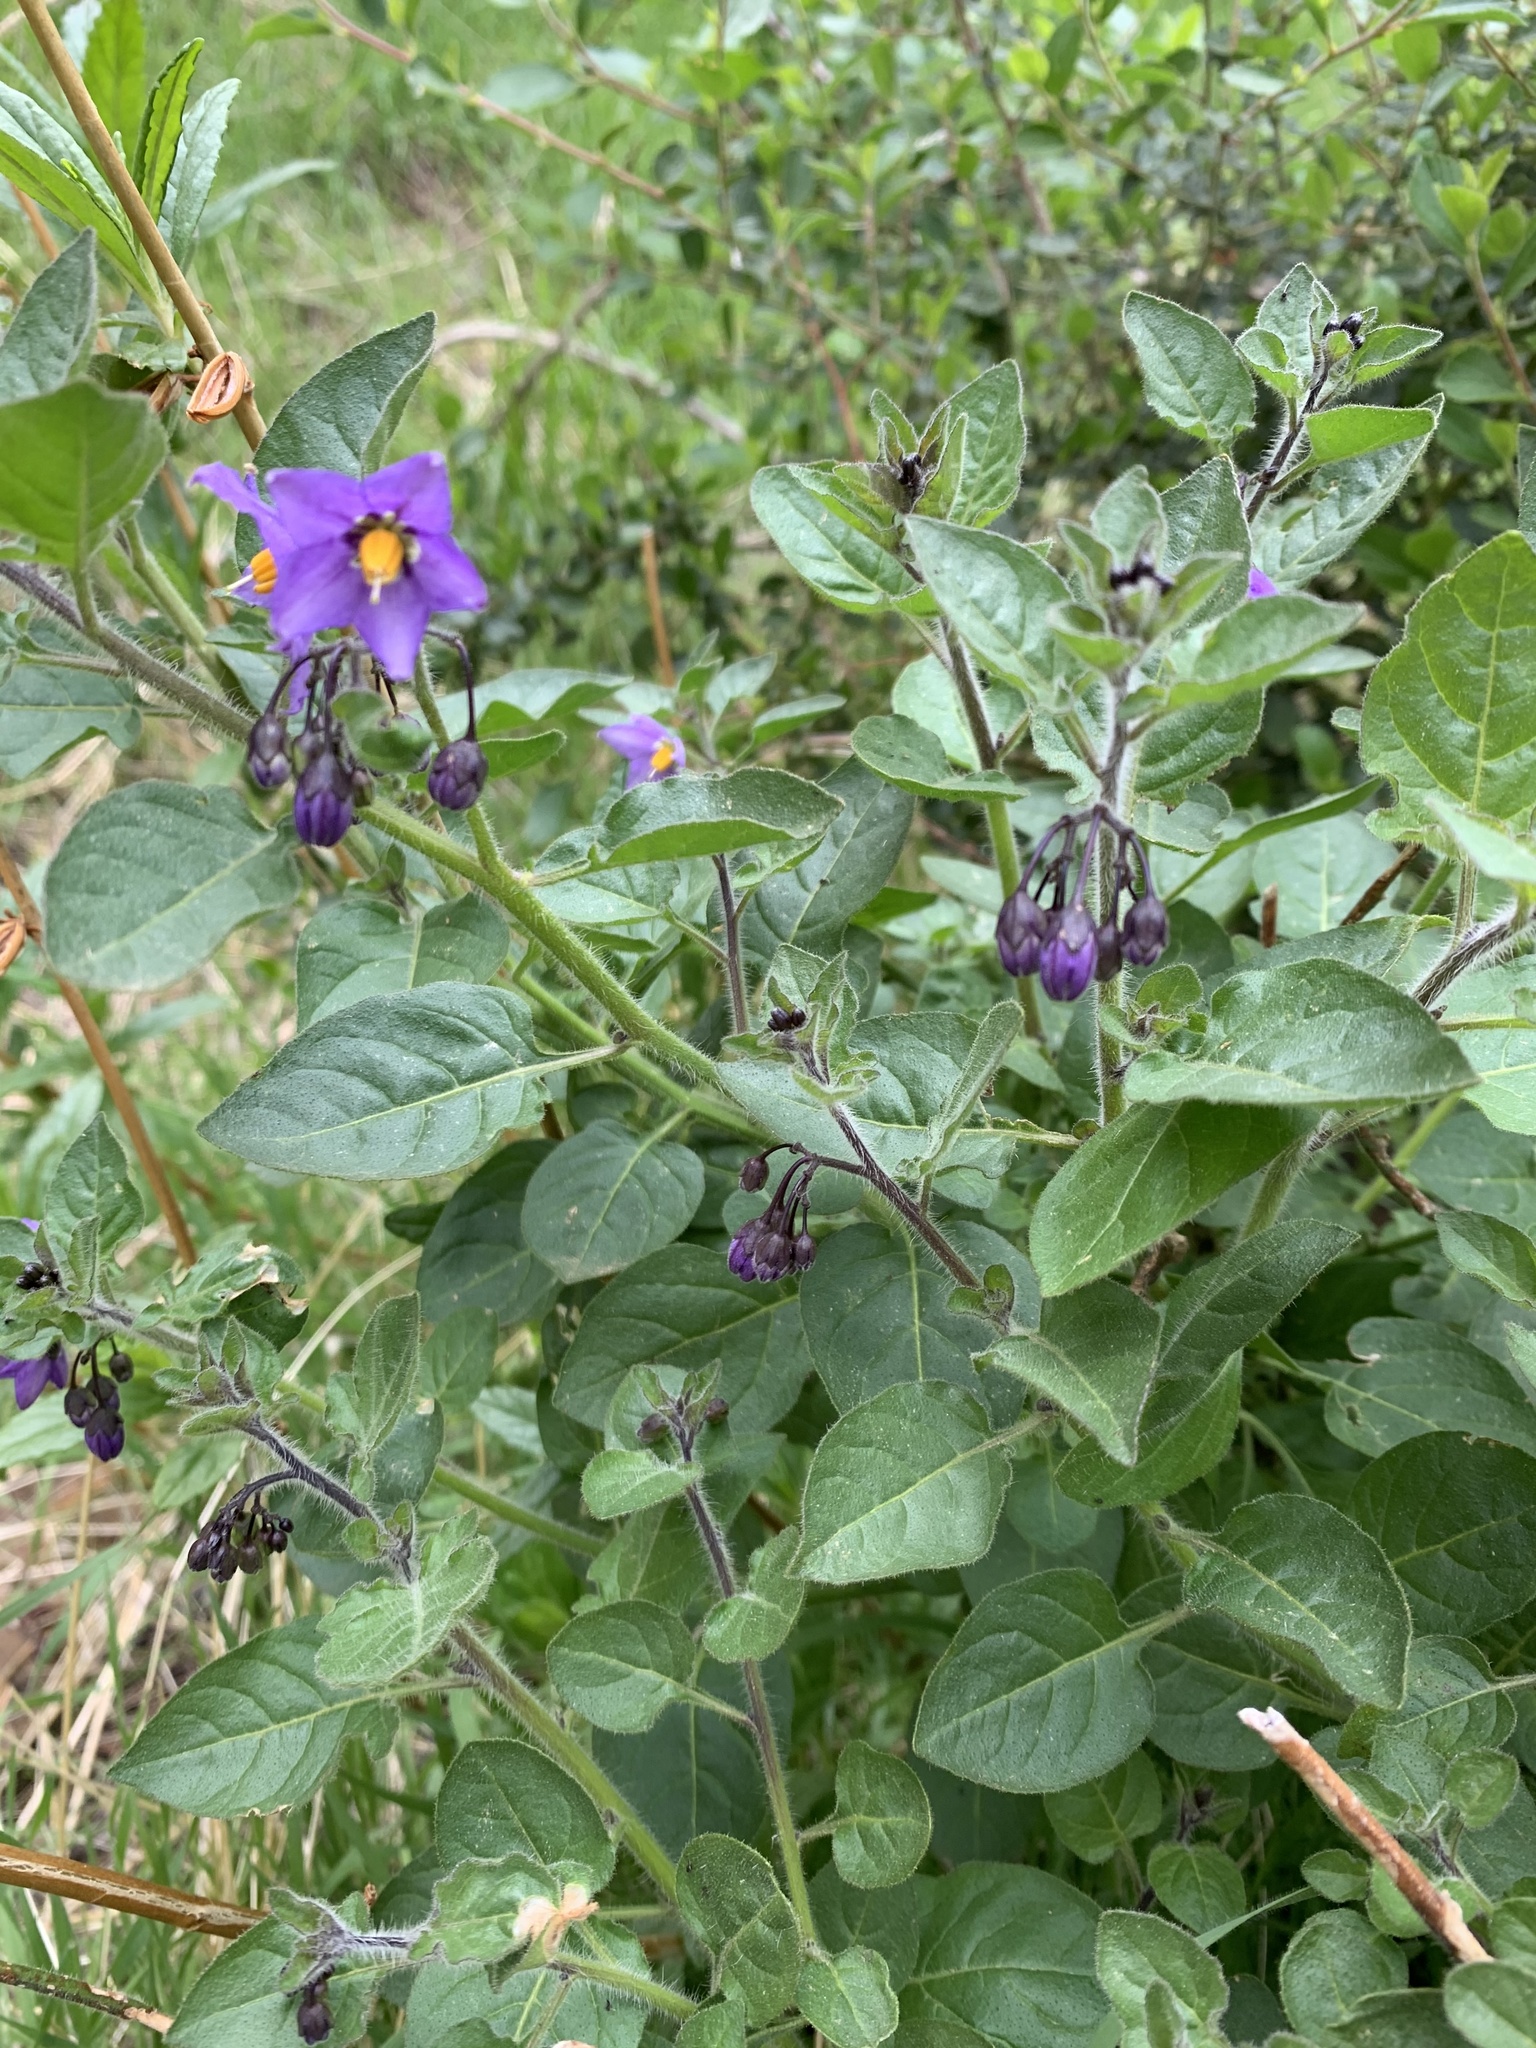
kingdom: Plantae
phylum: Tracheophyta
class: Magnoliopsida
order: Solanales
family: Solanaceae
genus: Solanum
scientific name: Solanum umbelliferum
